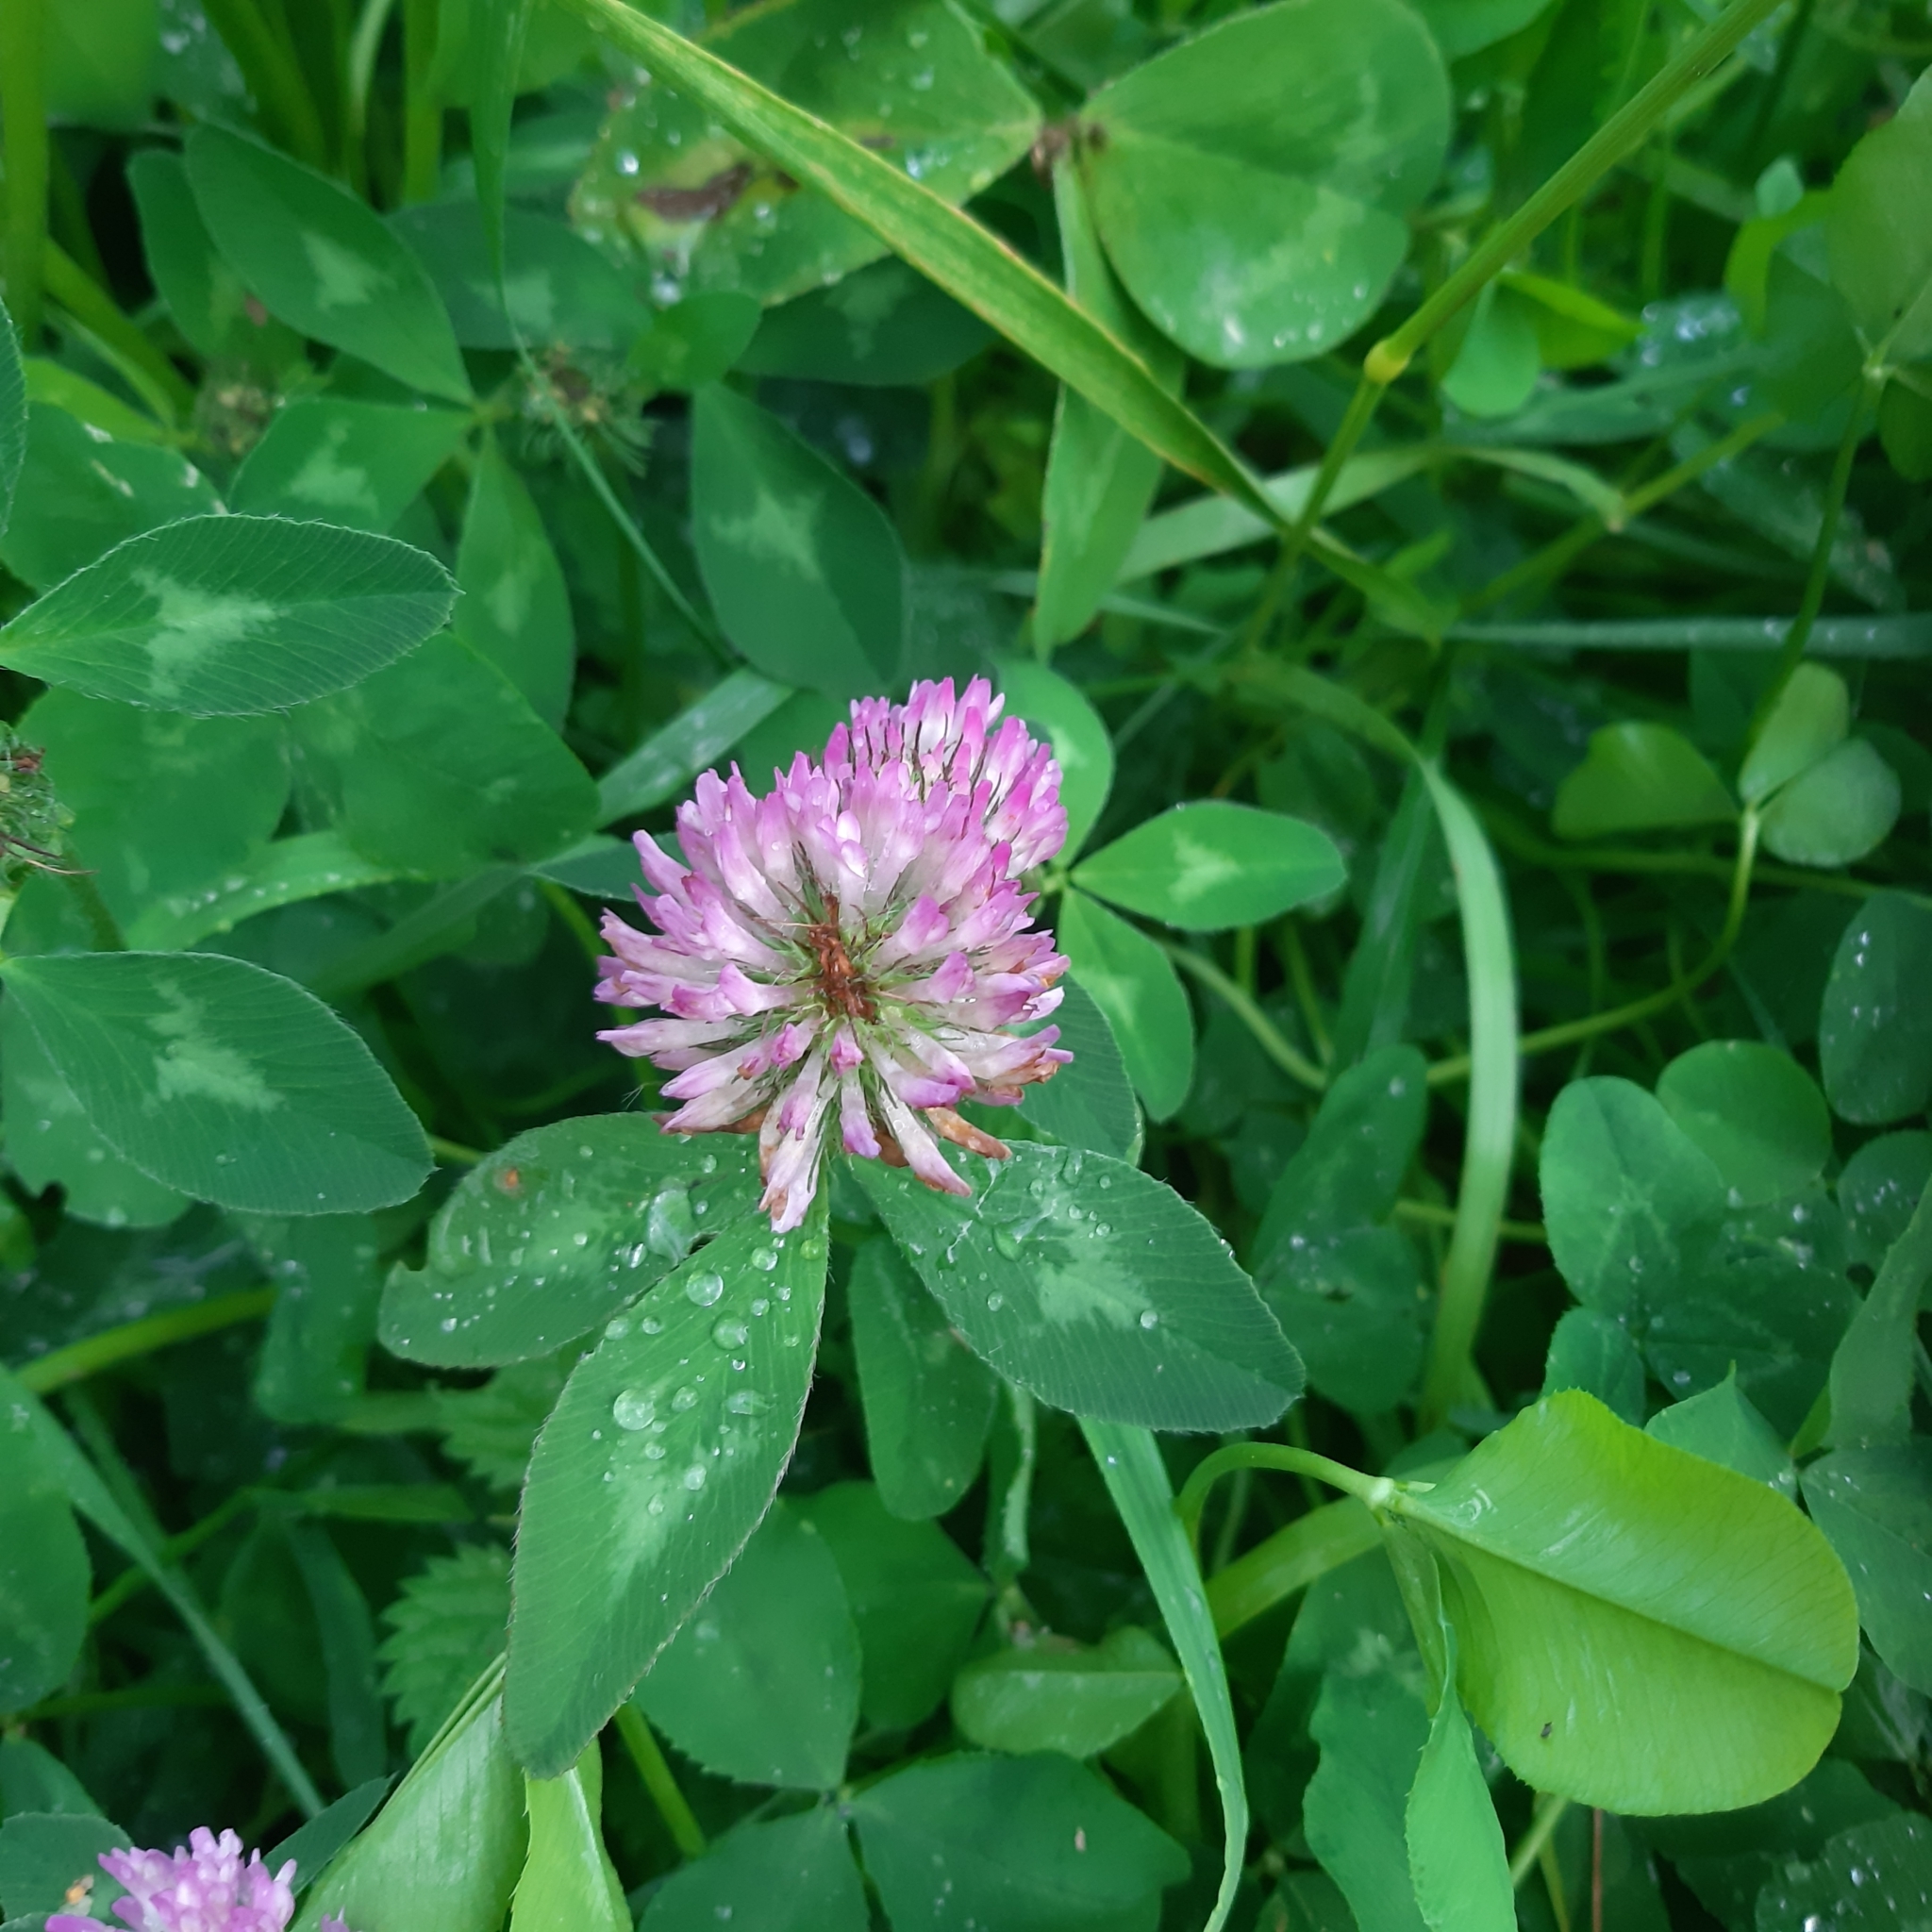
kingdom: Plantae
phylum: Tracheophyta
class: Magnoliopsida
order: Fabales
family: Fabaceae
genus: Trifolium
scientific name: Trifolium pratense
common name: Red clover
